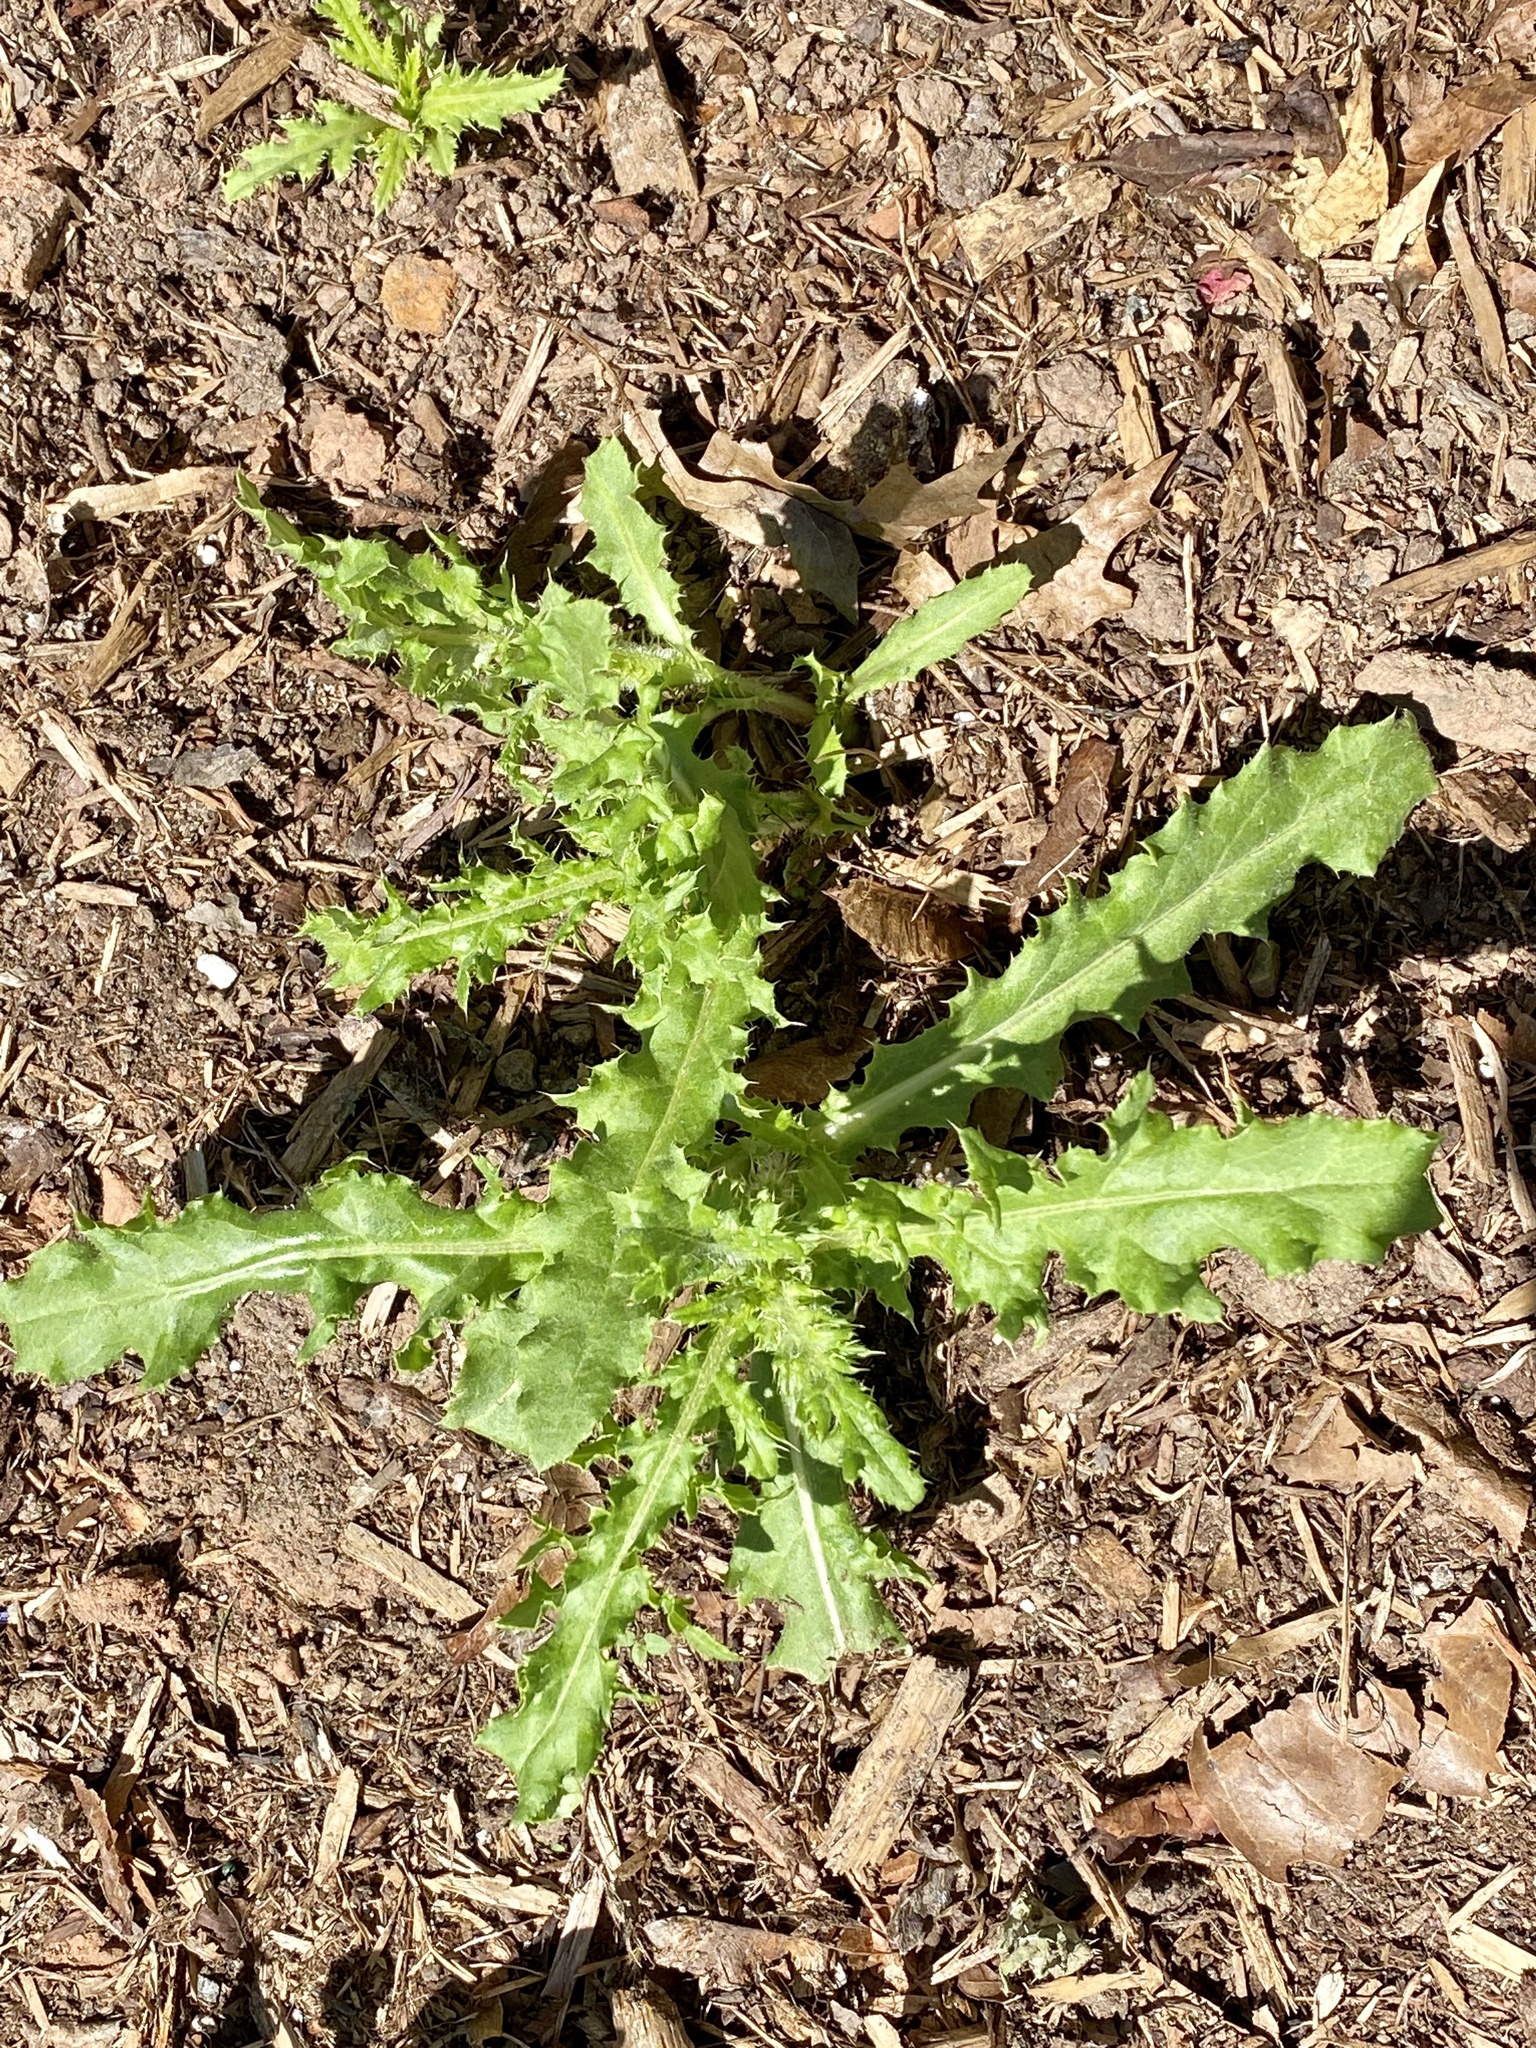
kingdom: Plantae
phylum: Tracheophyta
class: Magnoliopsida
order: Asterales
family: Asteraceae
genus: Cirsium
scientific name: Cirsium arvense
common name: Creeping thistle
